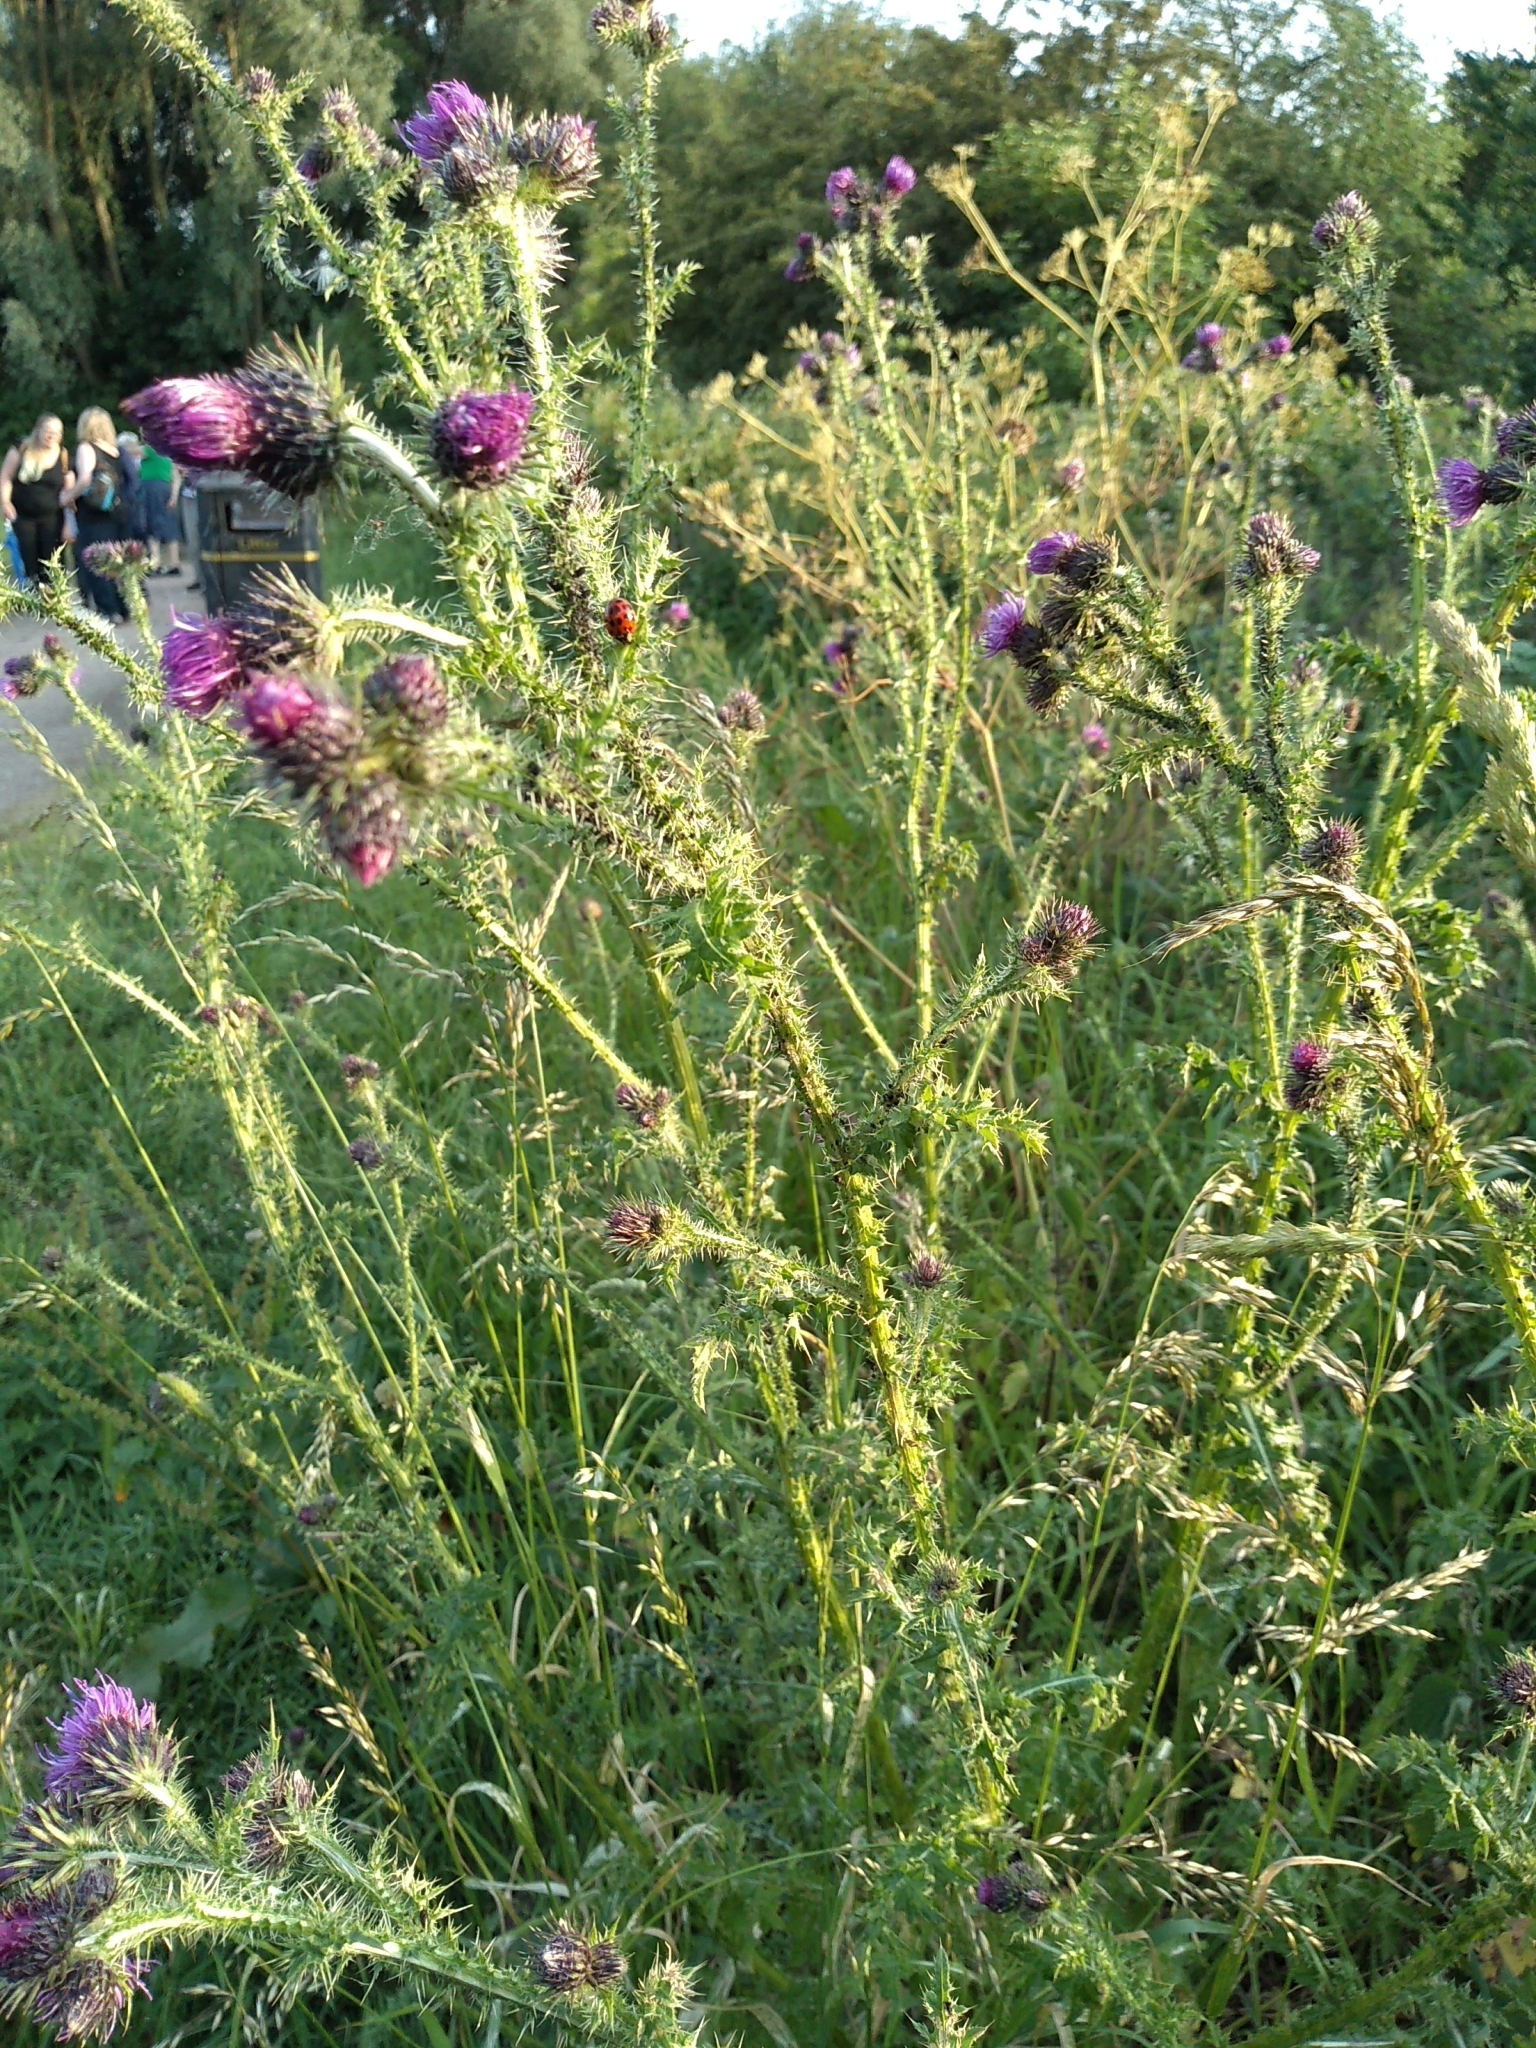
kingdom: Plantae
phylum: Tracheophyta
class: Magnoliopsida
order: Asterales
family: Asteraceae
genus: Carduus
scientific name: Carduus crispus
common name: Welted thistle
